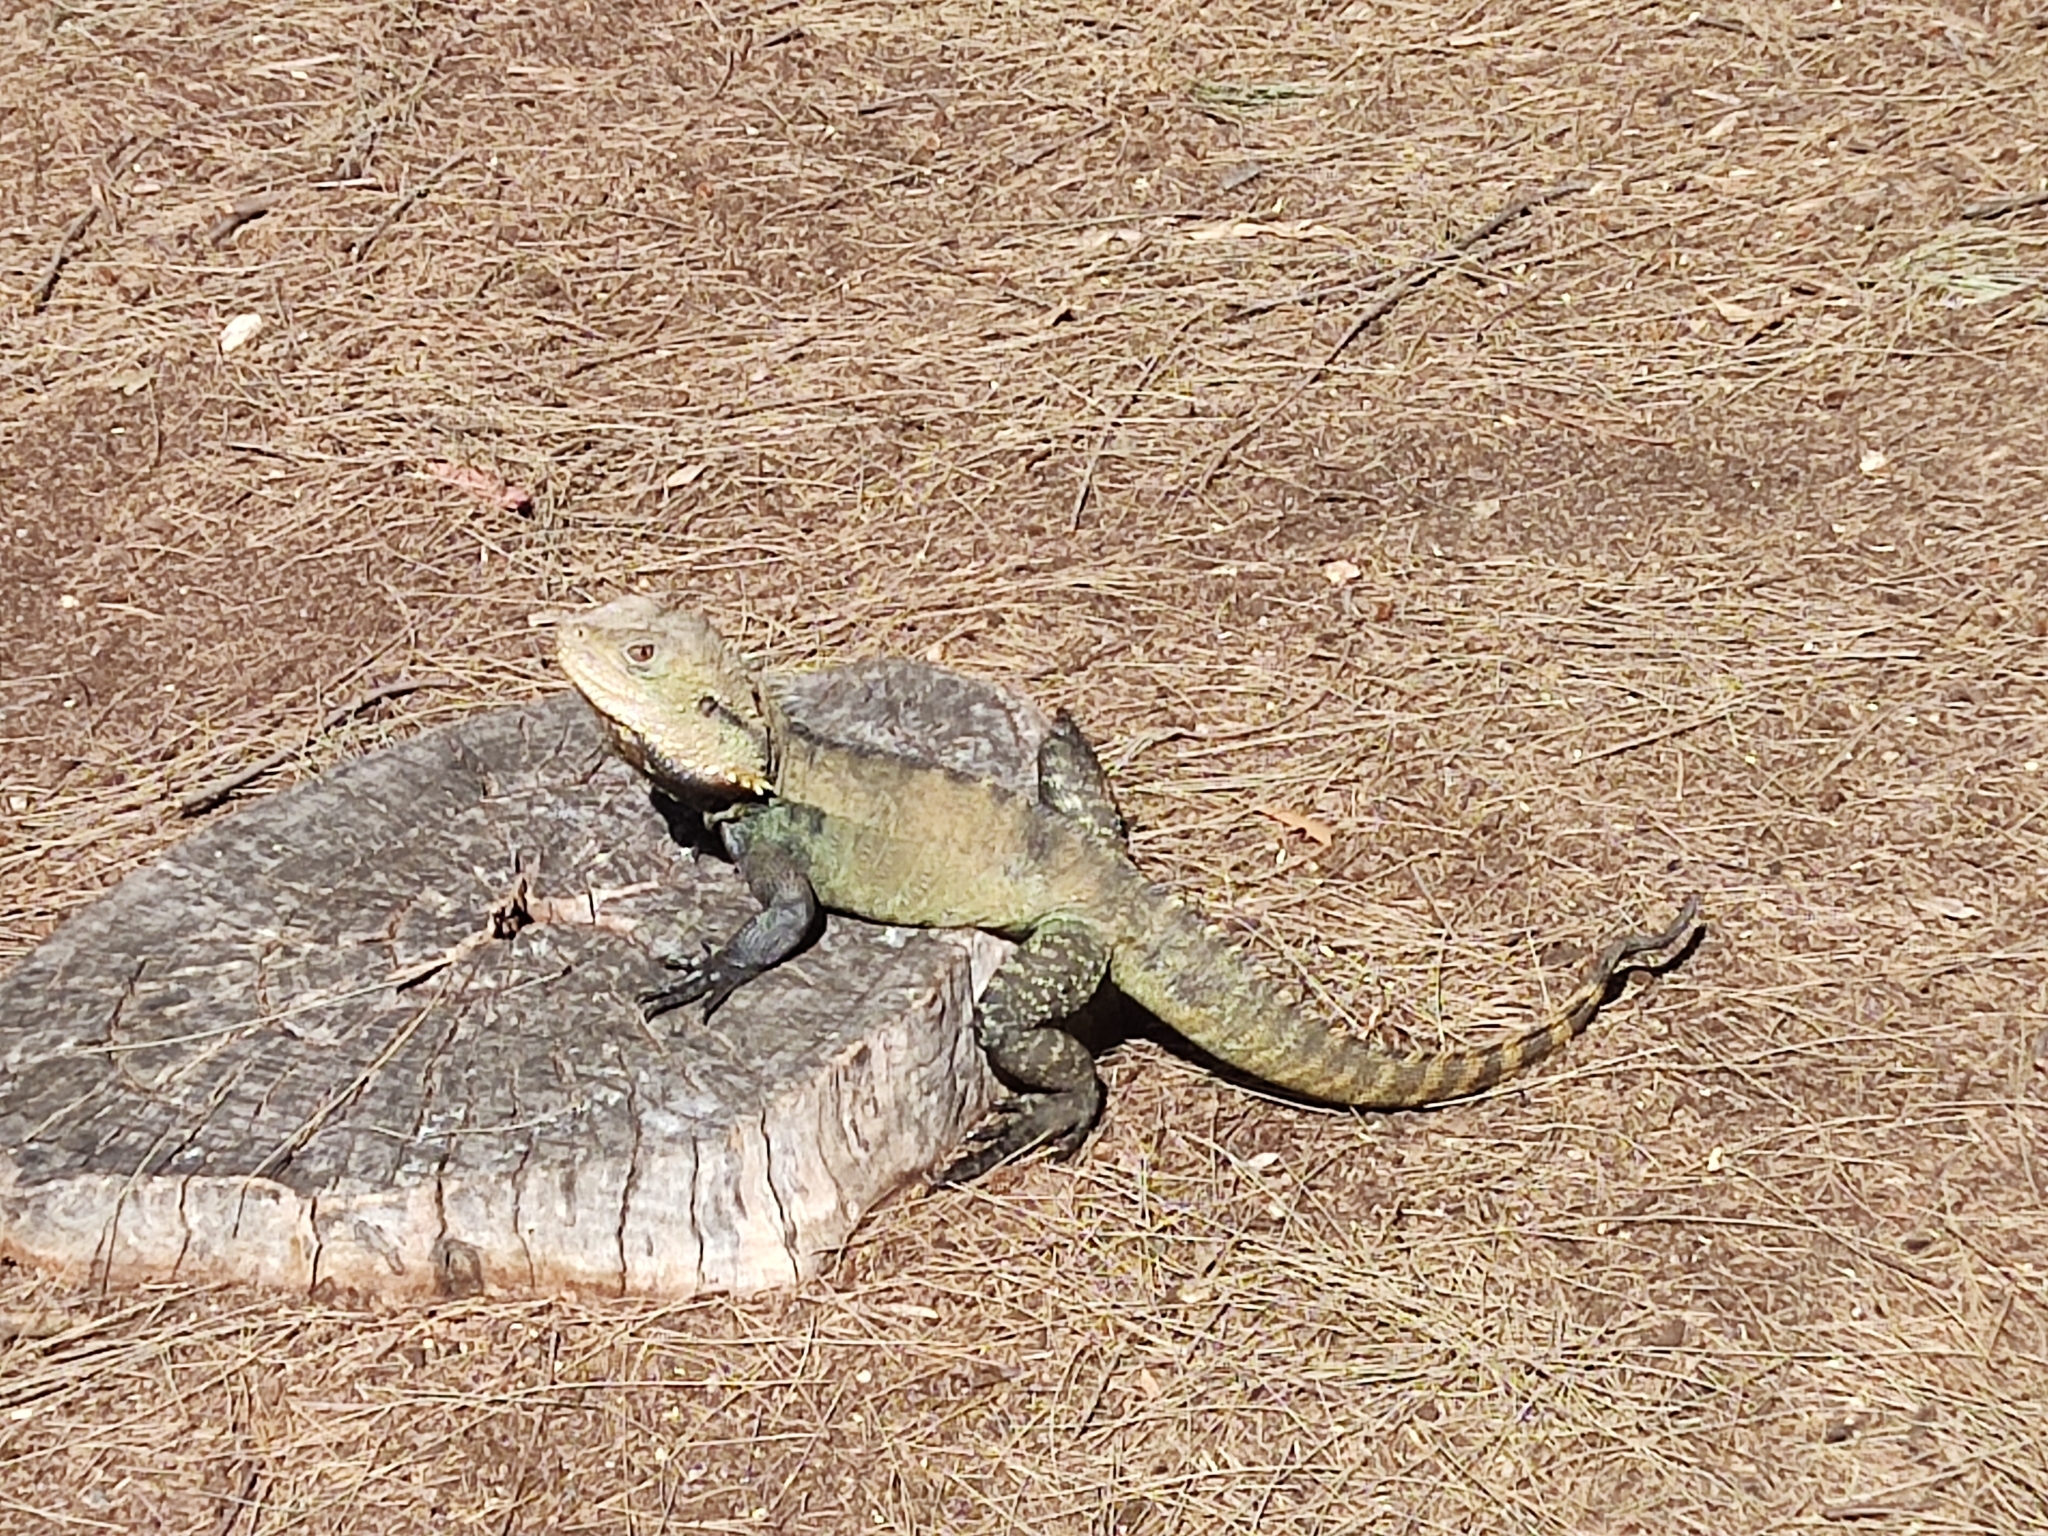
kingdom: Animalia
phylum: Chordata
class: Squamata
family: Agamidae
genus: Intellagama
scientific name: Intellagama lesueurii
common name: Eastern water dragon
